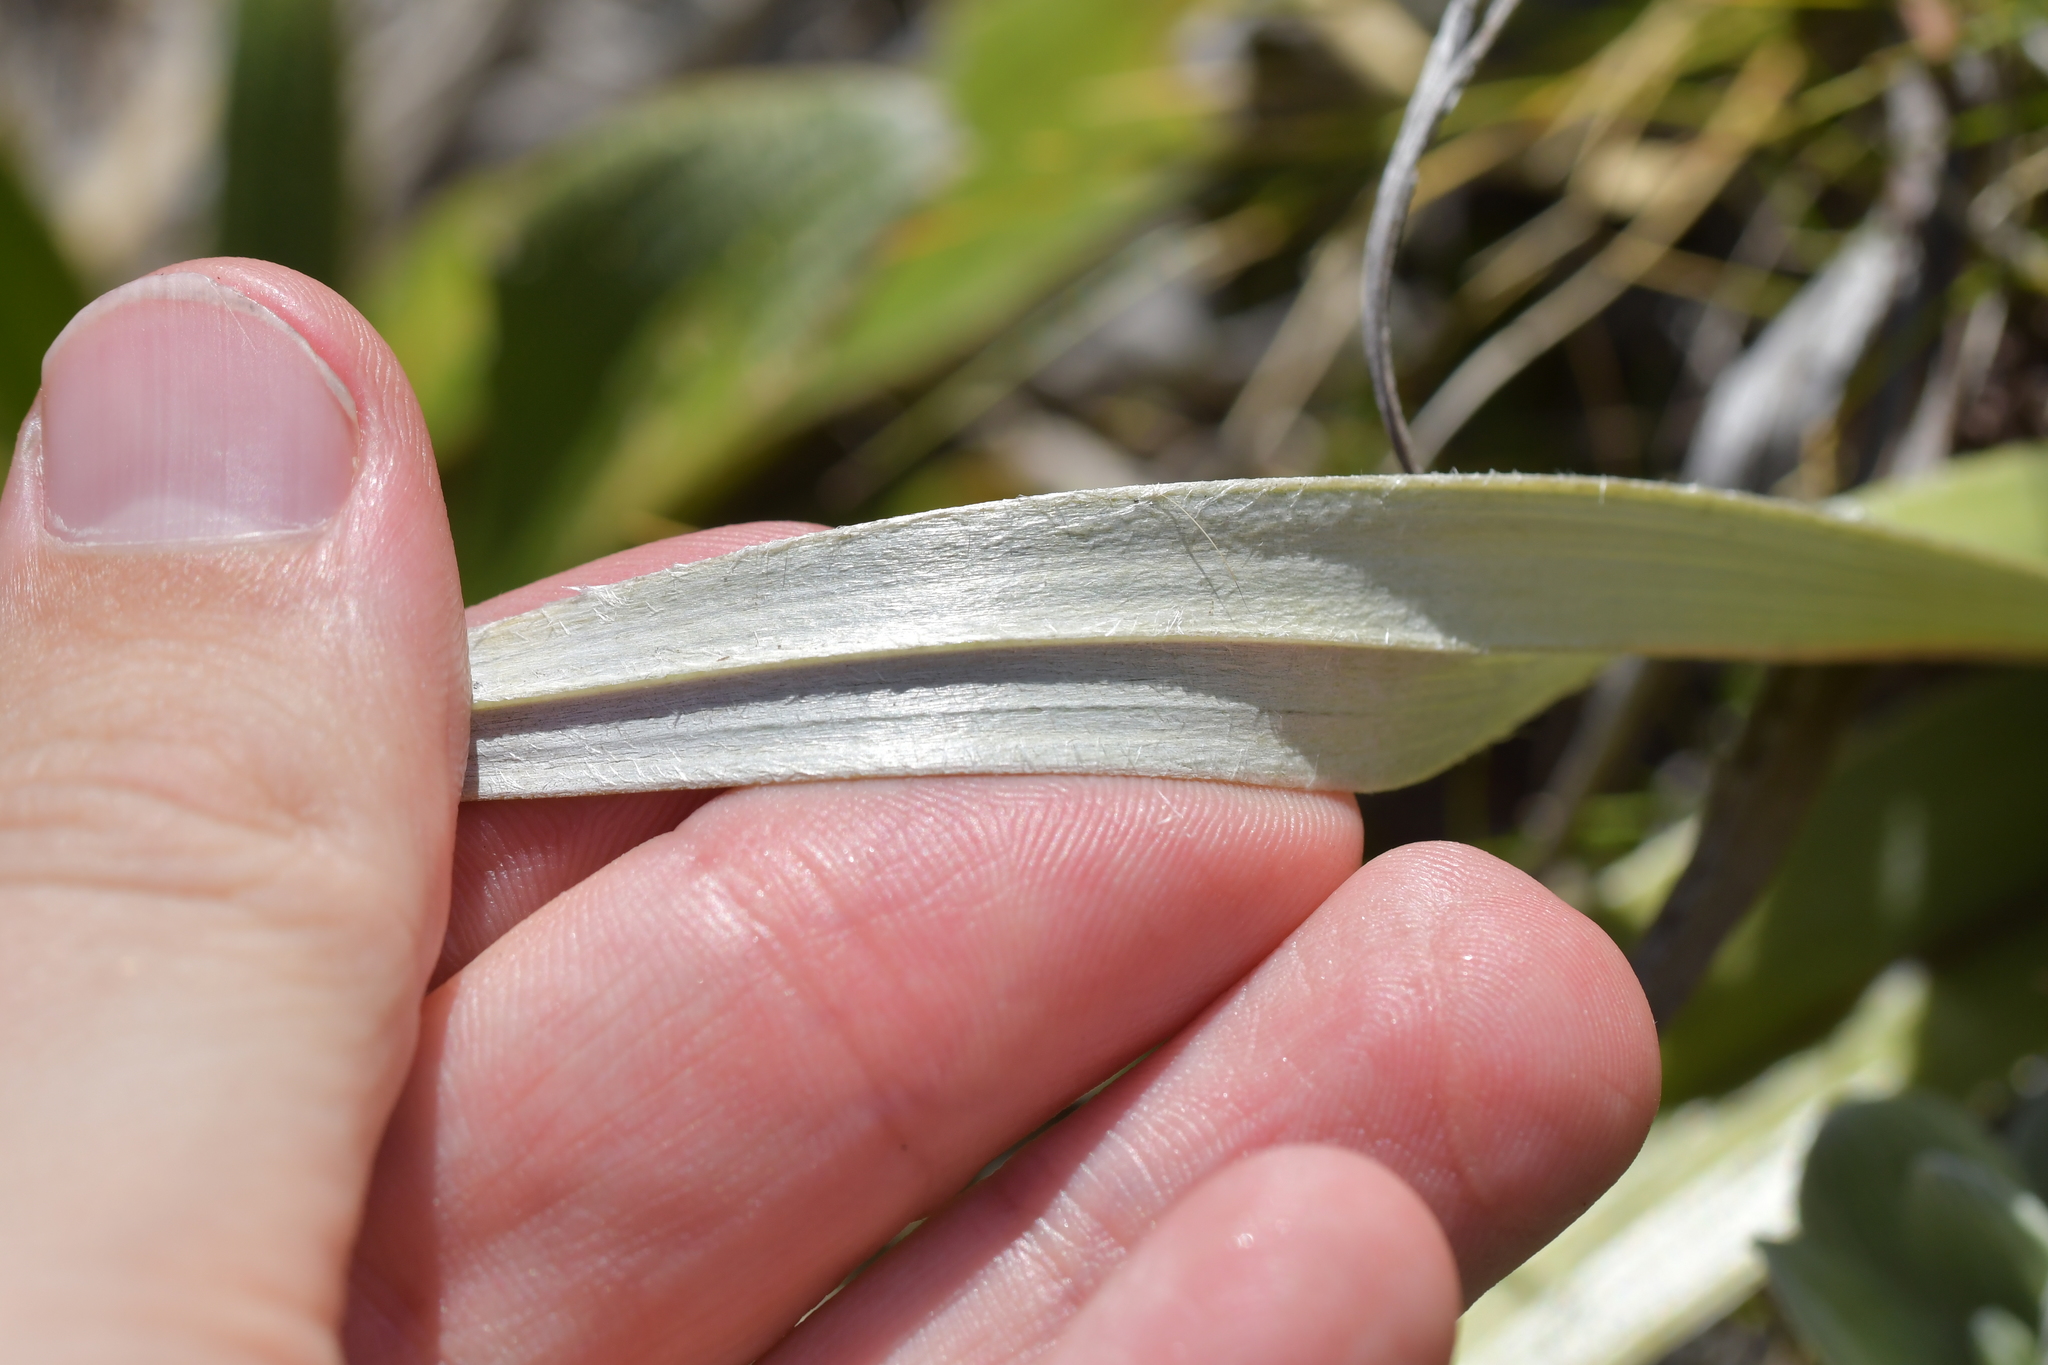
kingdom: Plantae
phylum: Tracheophyta
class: Liliopsida
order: Asparagales
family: Asteliaceae
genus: Astelia
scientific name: Astelia petriei
